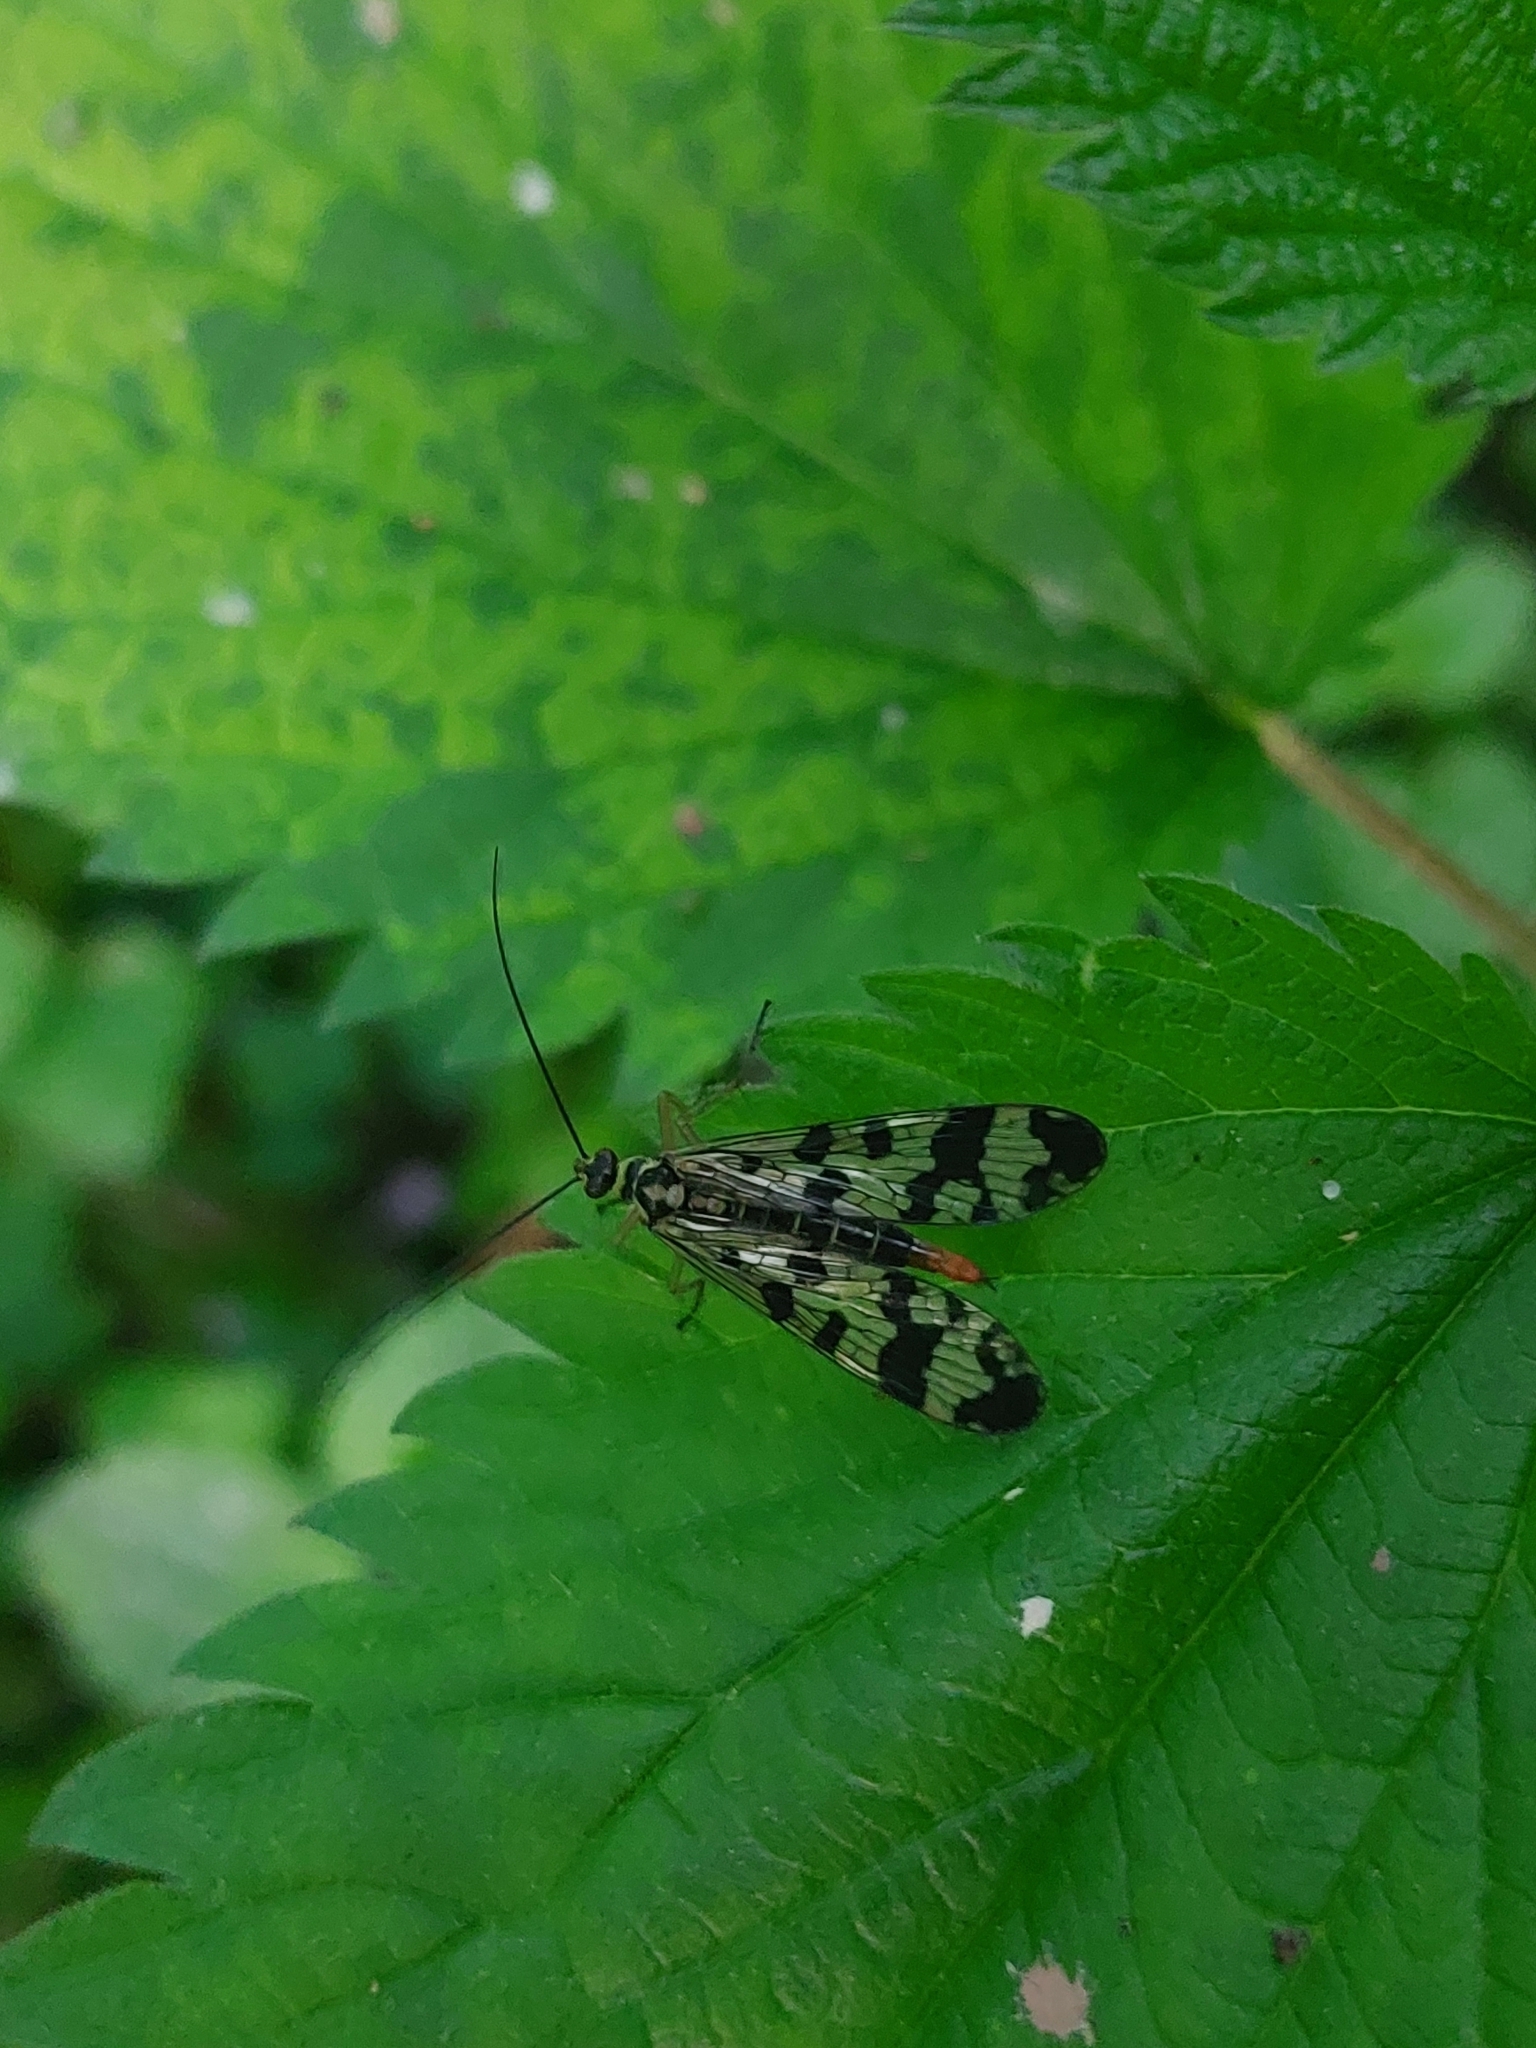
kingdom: Animalia
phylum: Arthropoda
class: Insecta
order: Mecoptera
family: Panorpidae
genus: Panorpa
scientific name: Panorpa communis
